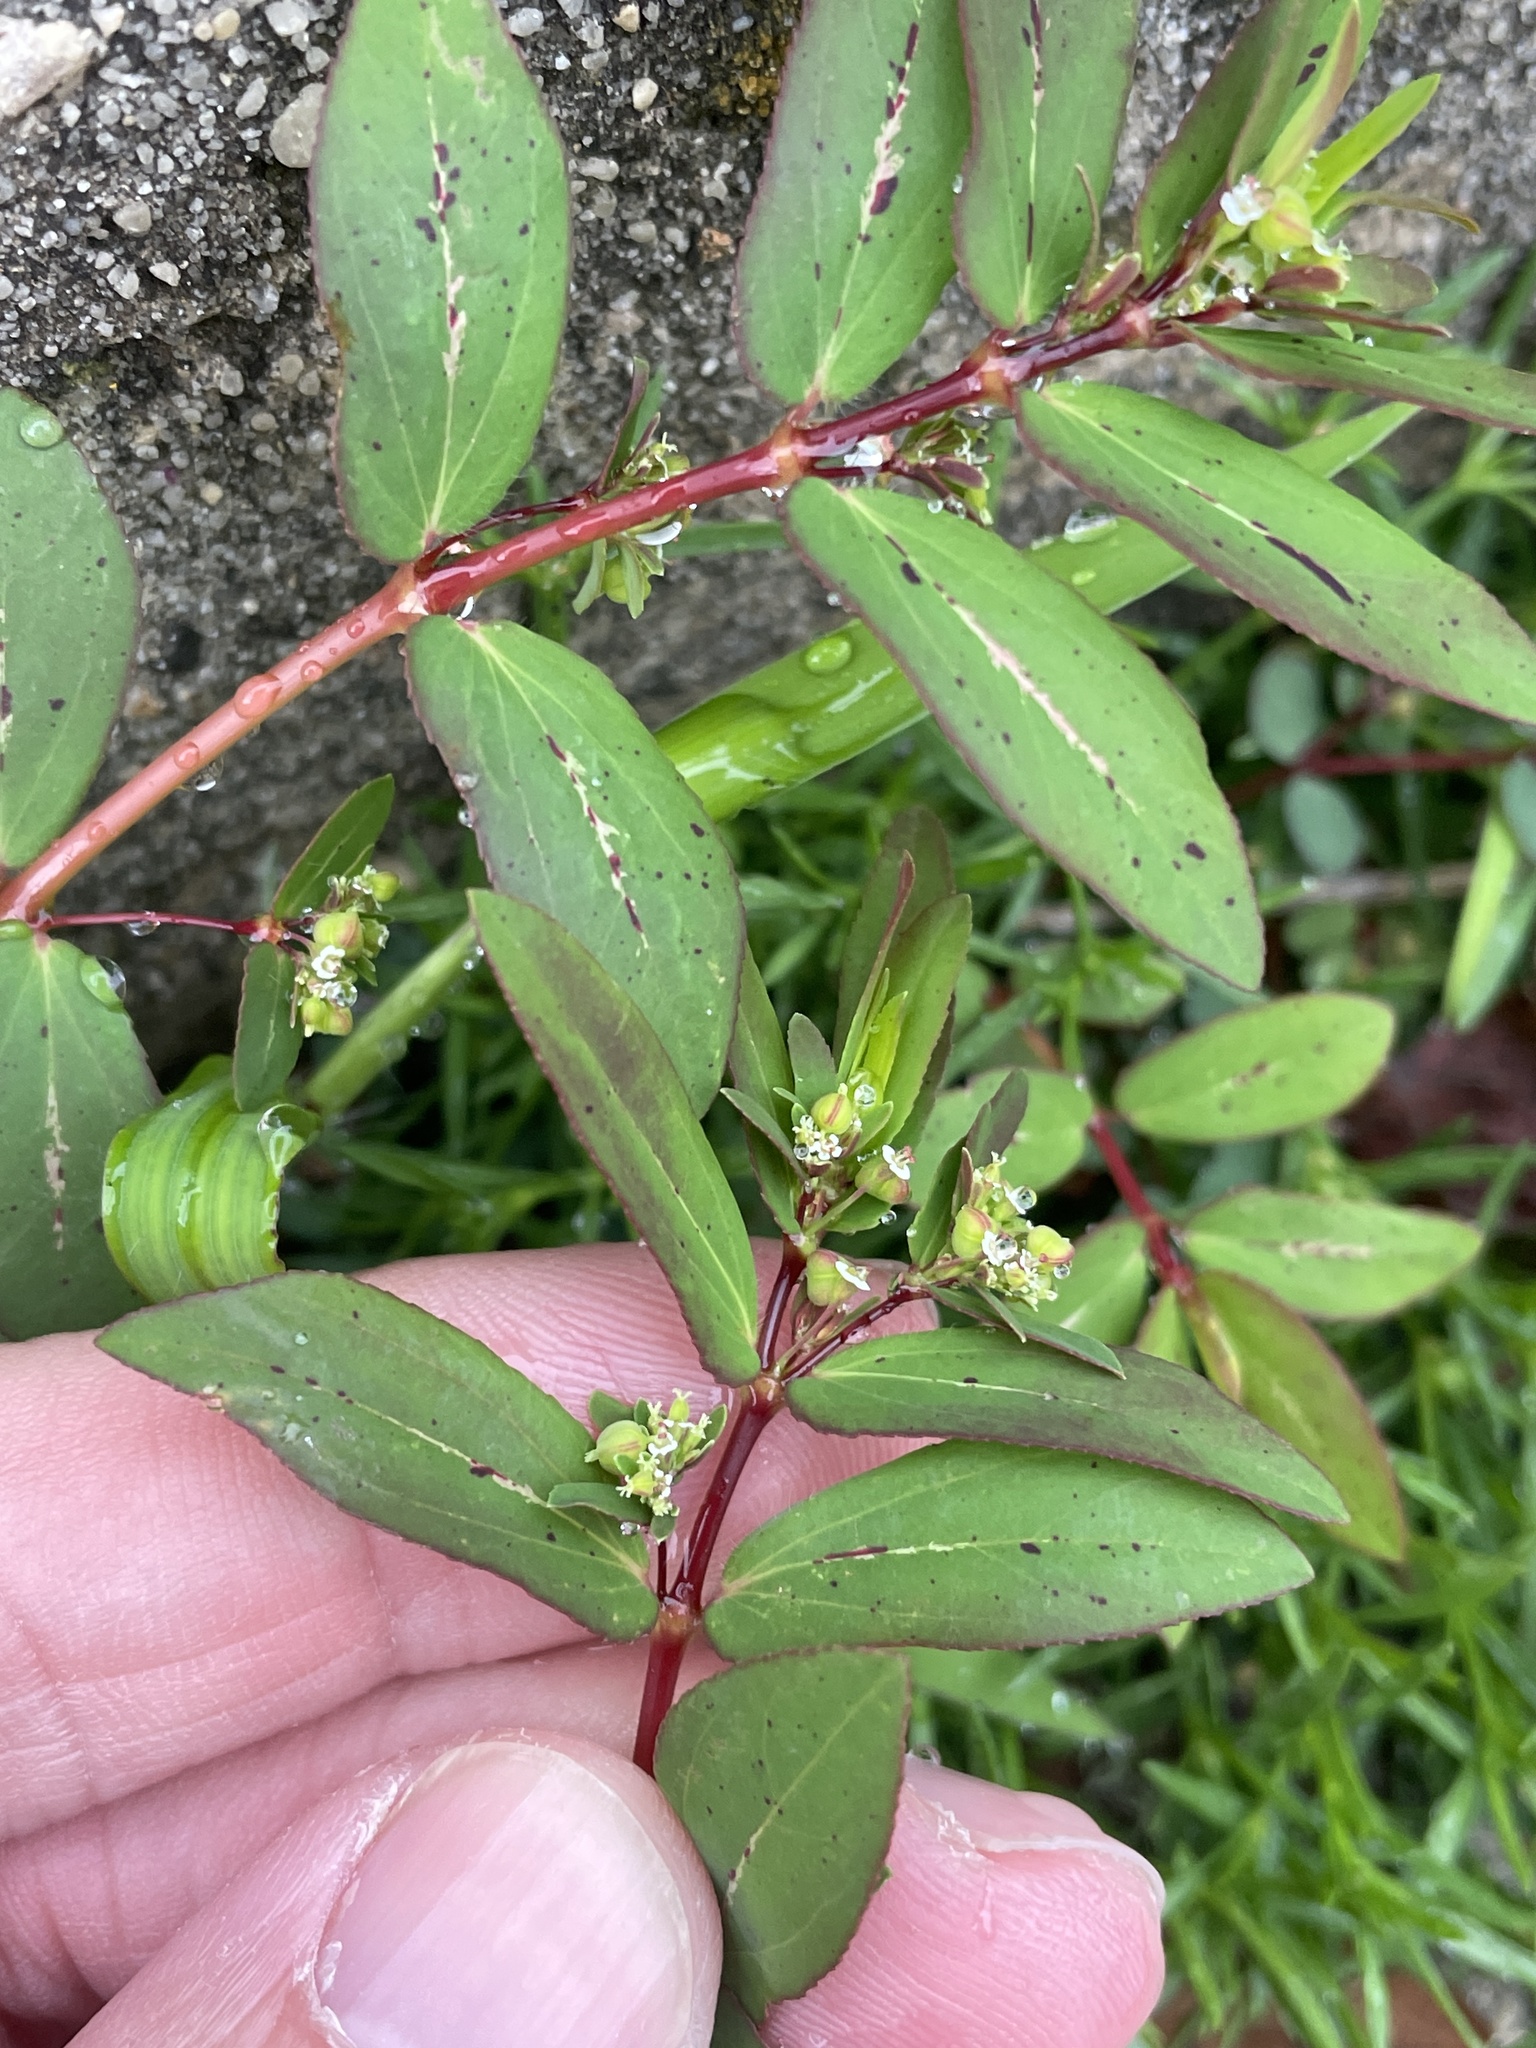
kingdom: Plantae
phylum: Tracheophyta
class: Magnoliopsida
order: Malpighiales
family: Euphorbiaceae
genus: Euphorbia
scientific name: Euphorbia hyssopifolia
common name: Hyssopleaf sandmat
